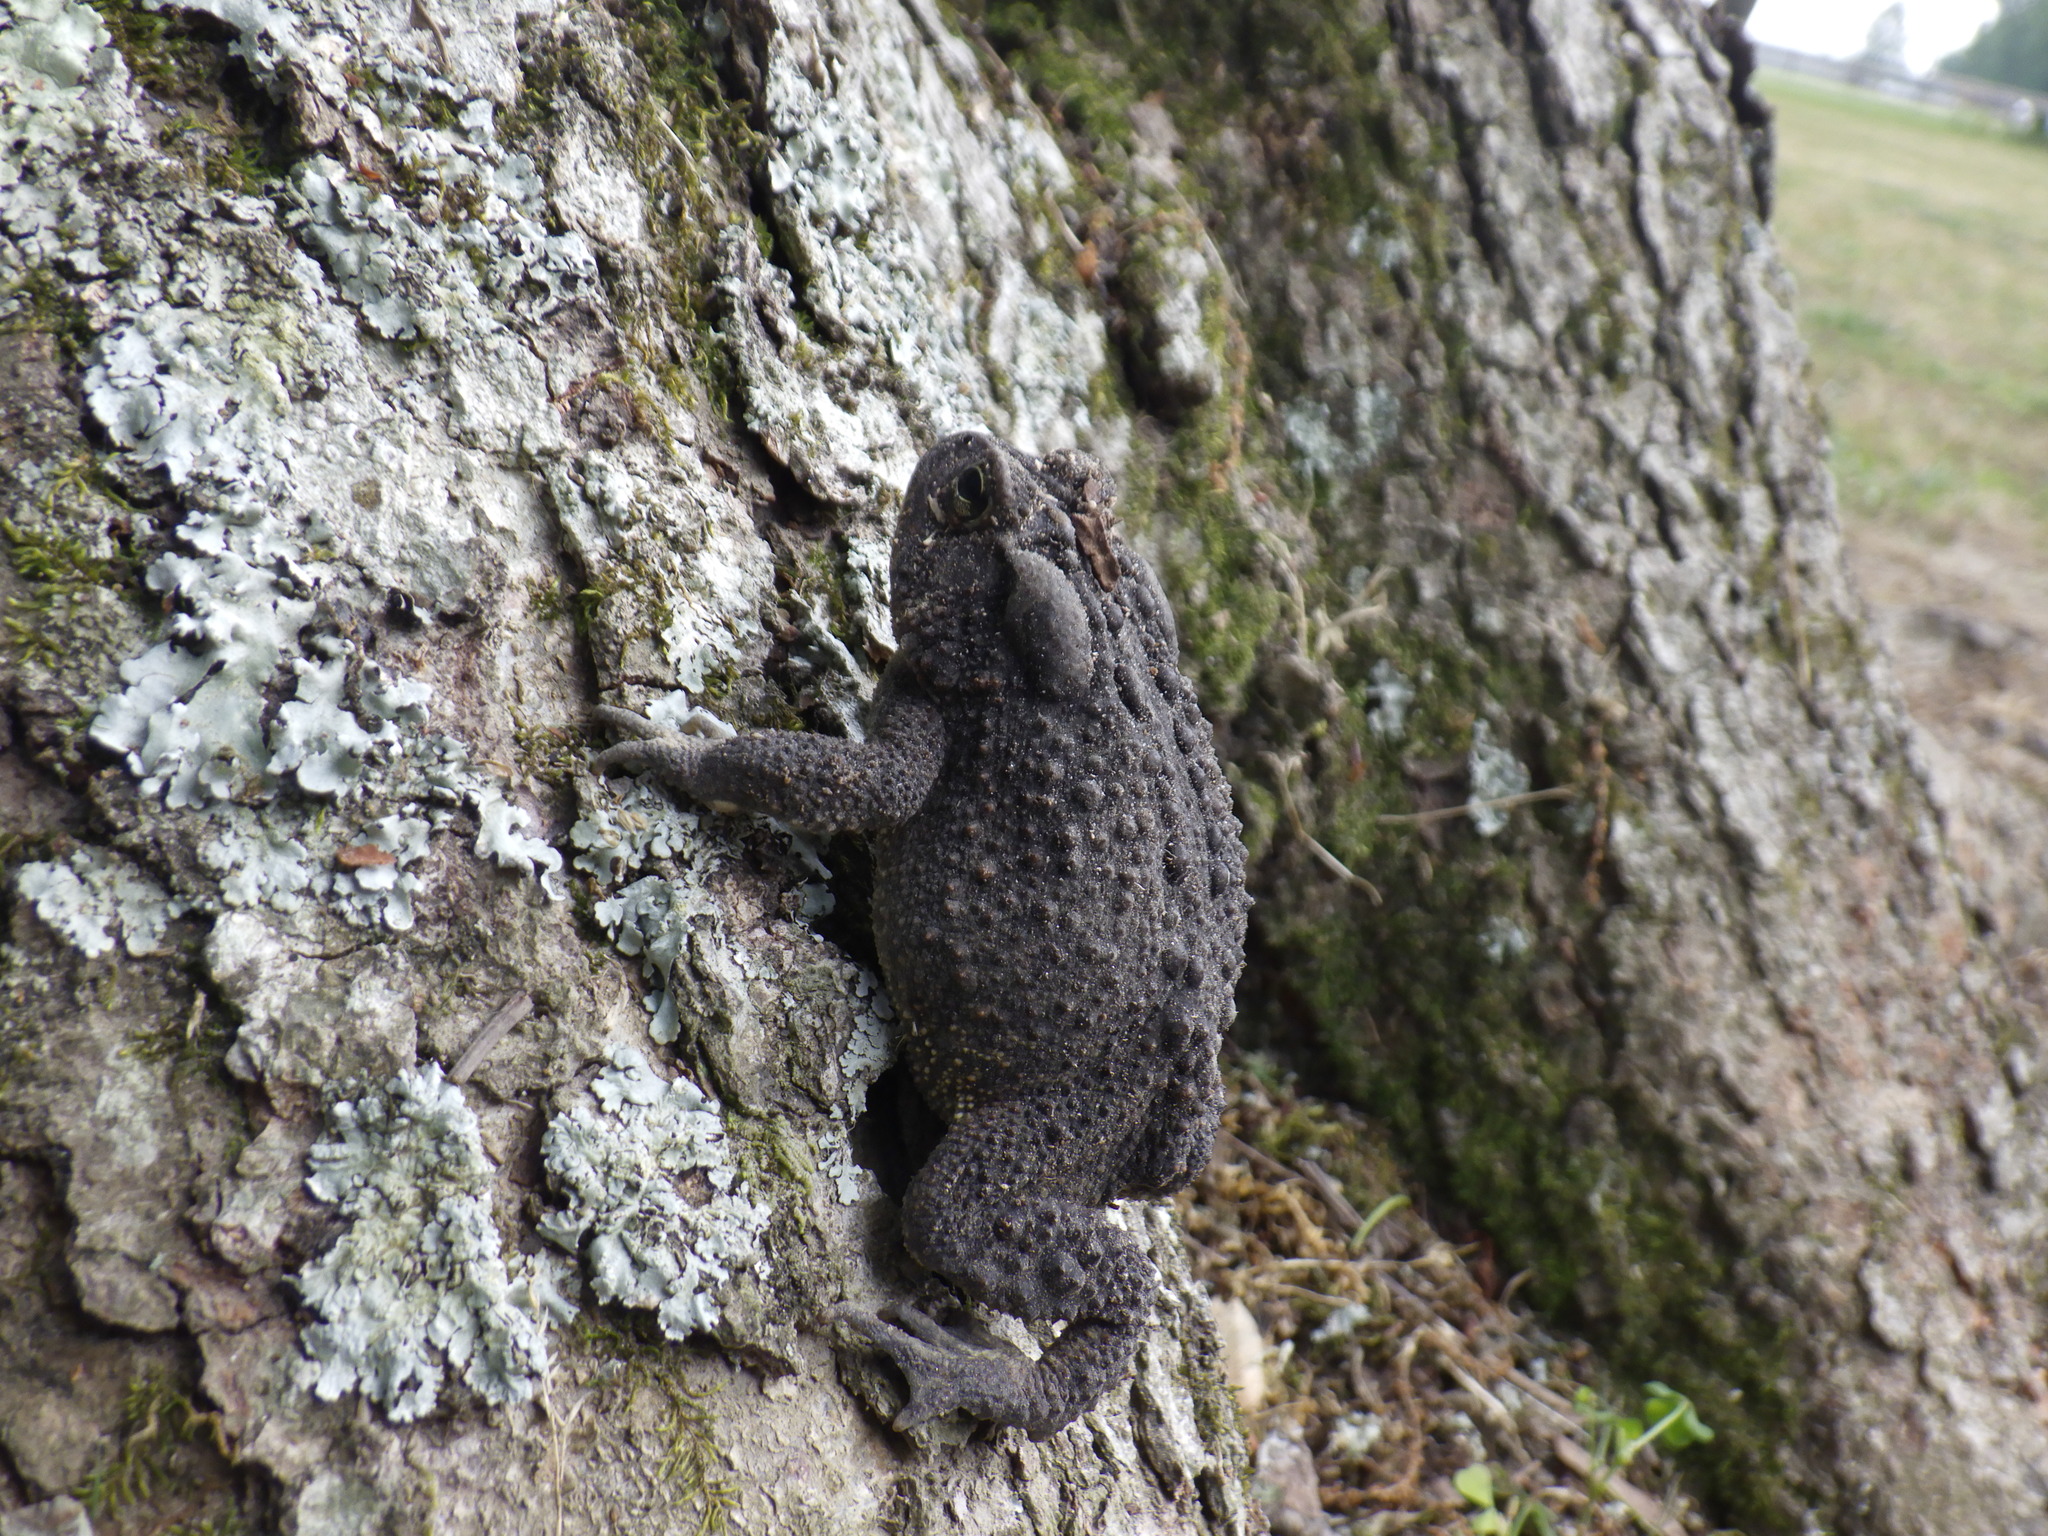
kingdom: Animalia
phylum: Chordata
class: Amphibia
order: Anura
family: Bufonidae
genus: Anaxyrus
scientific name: Anaxyrus terrestris
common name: Southern toad
